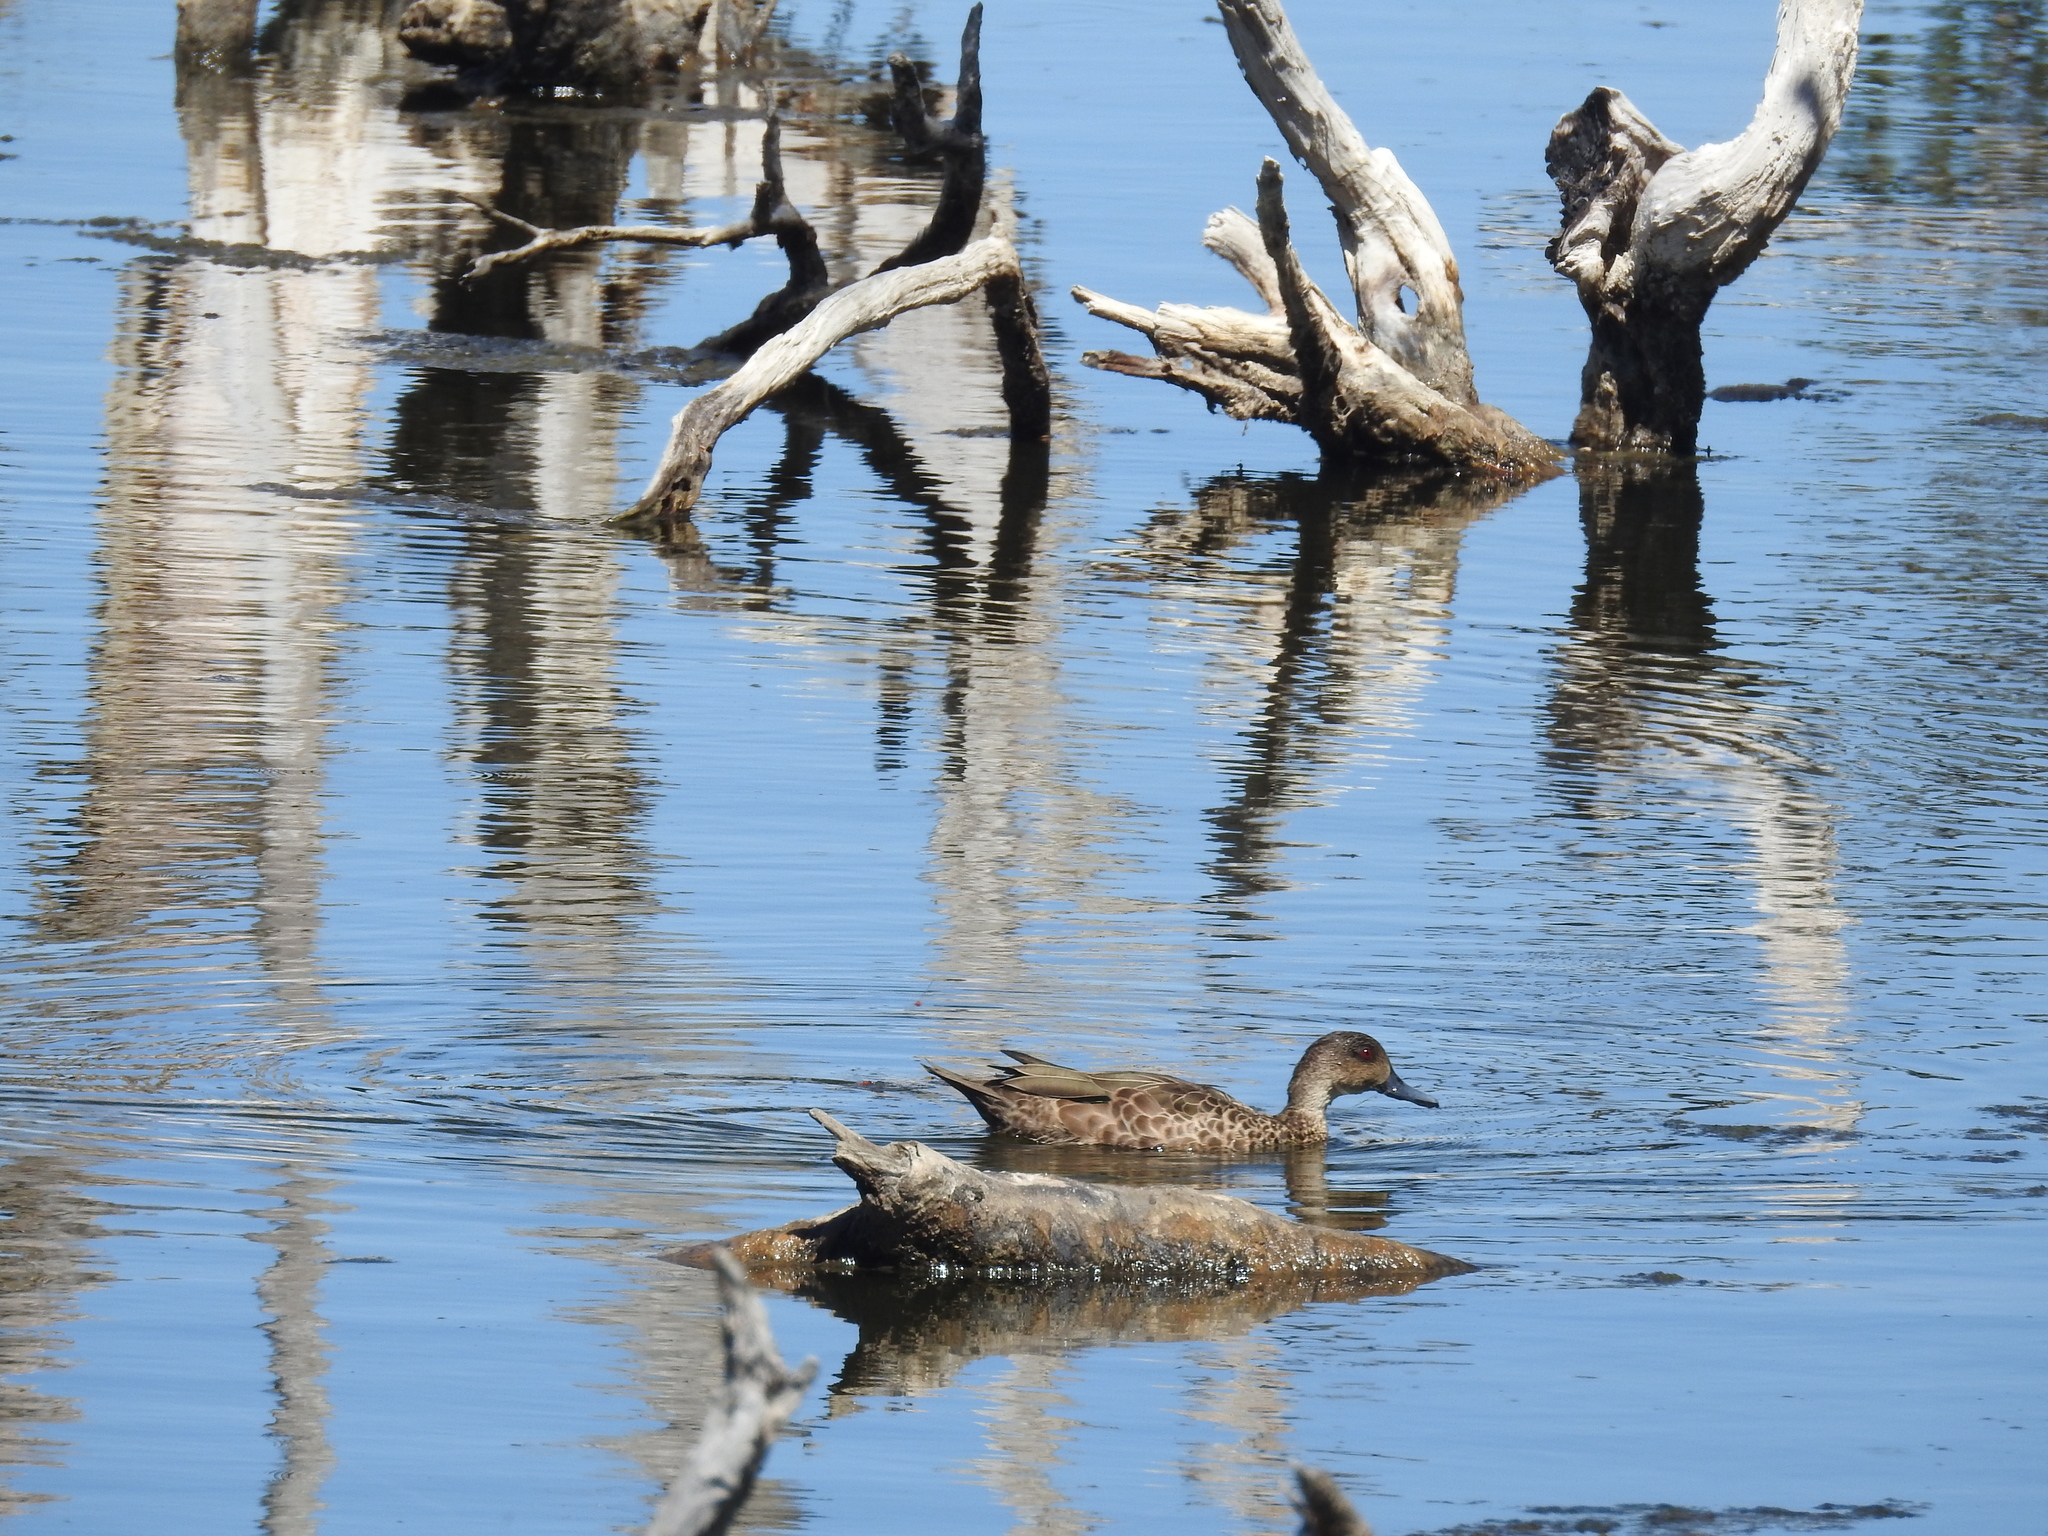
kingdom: Animalia
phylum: Chordata
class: Aves
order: Anseriformes
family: Anatidae
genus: Anas
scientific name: Anas gracilis
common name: Grey teal
